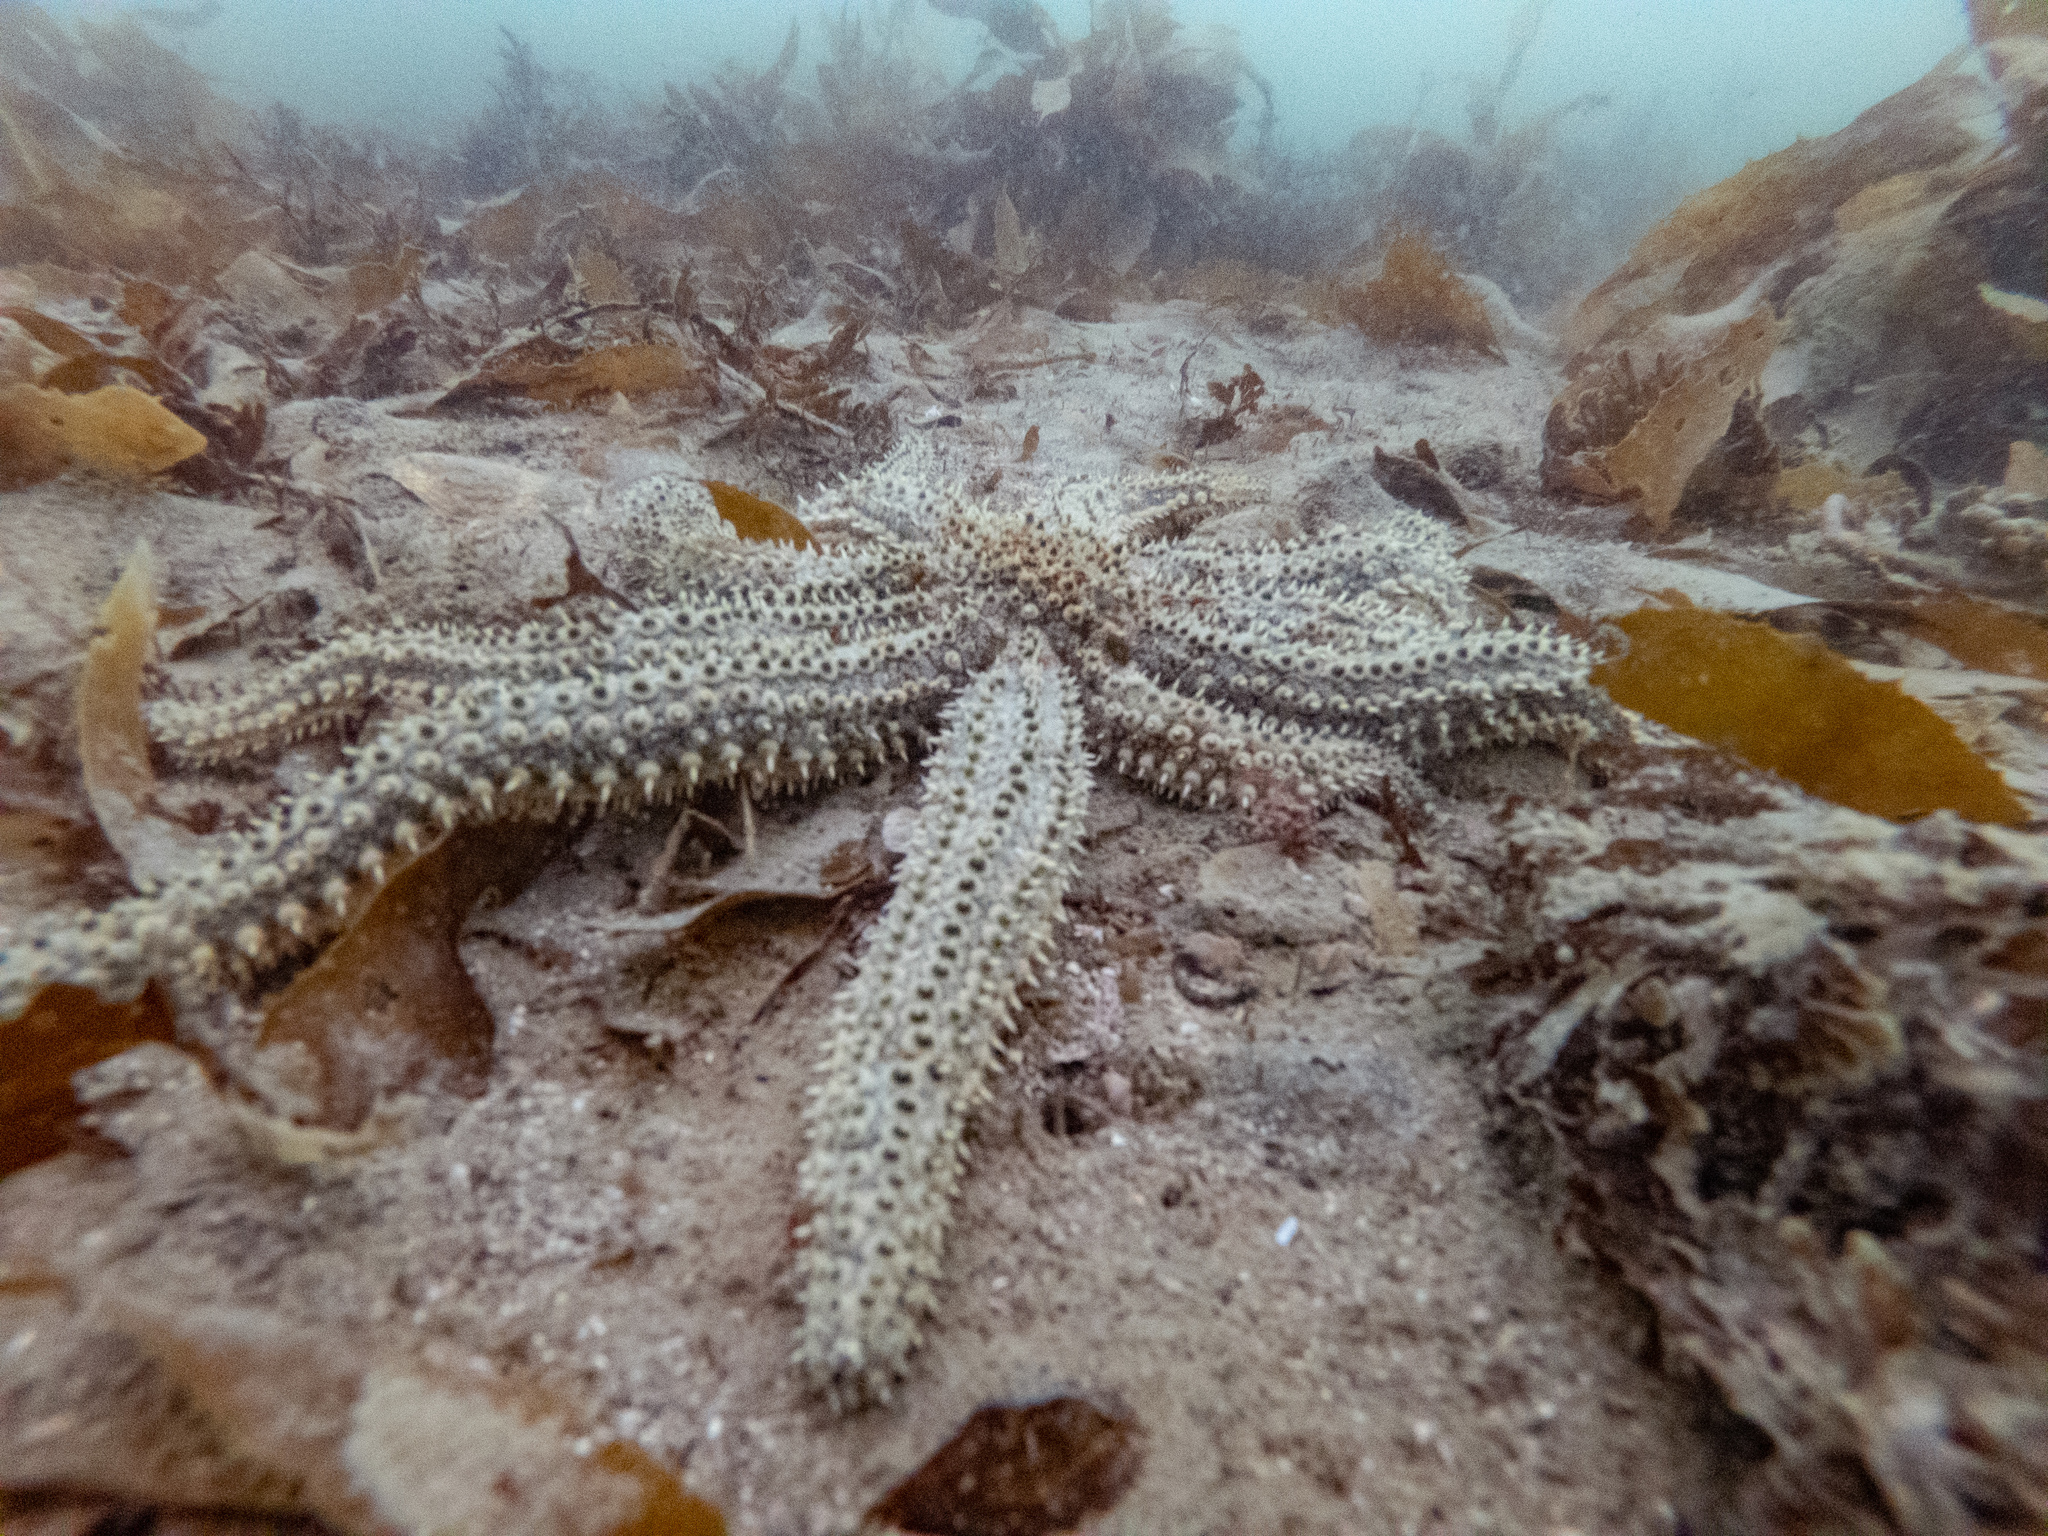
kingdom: Animalia
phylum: Echinodermata
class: Asteroidea
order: Forcipulatida
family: Asteriidae
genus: Coscinasterias
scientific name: Coscinasterias muricata
